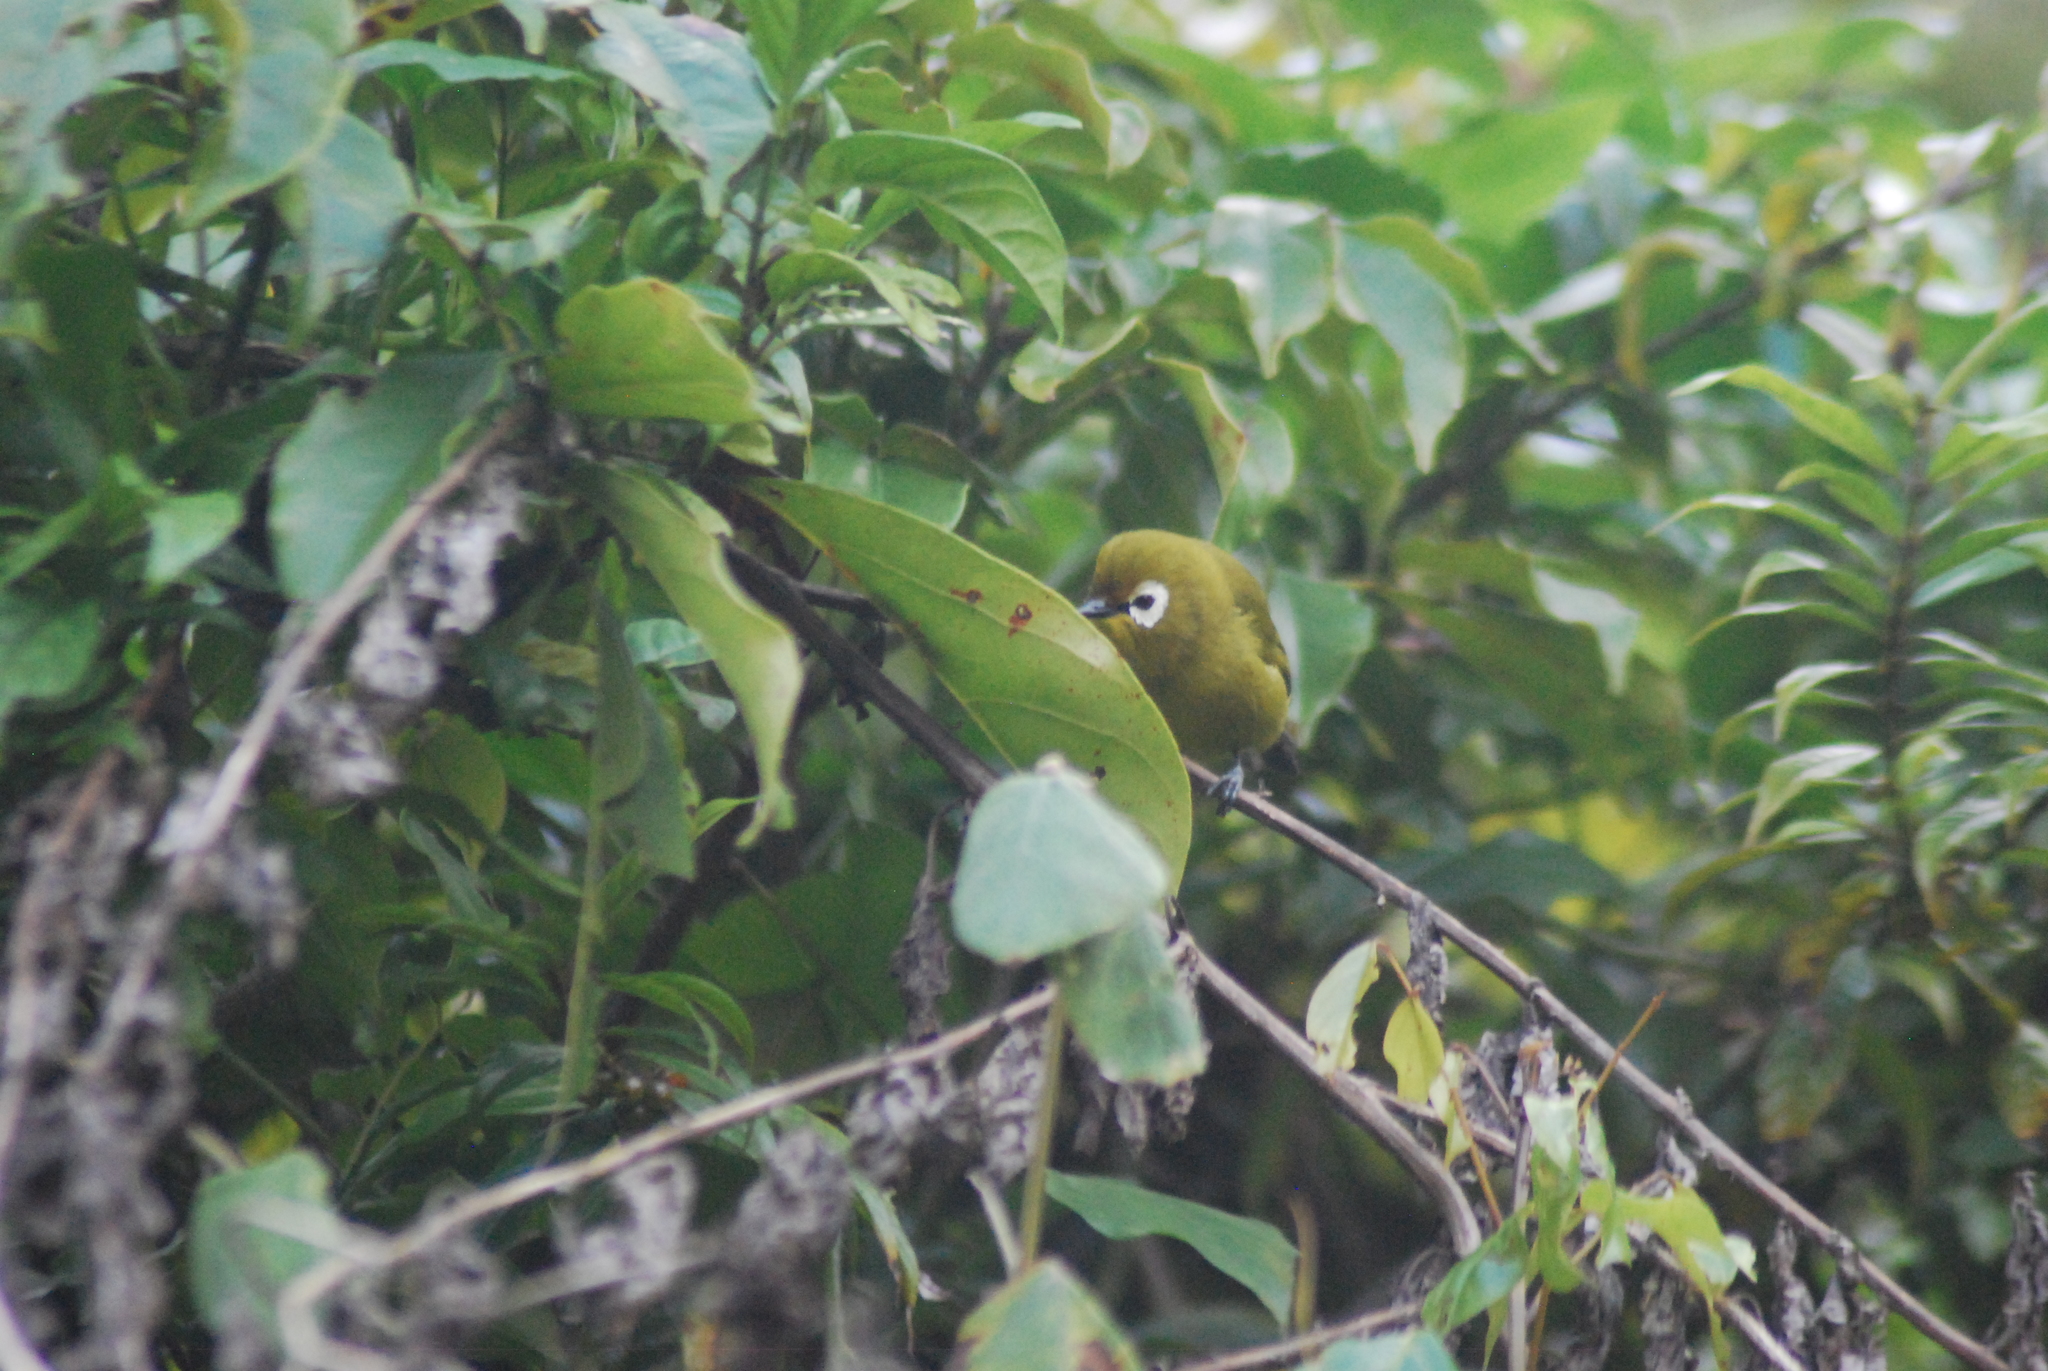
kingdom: Animalia
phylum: Chordata
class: Aves
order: Passeriformes
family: Zosteropidae
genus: Zosterops
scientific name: Zosterops eurycricotus
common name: Broad-ringed white-eye
